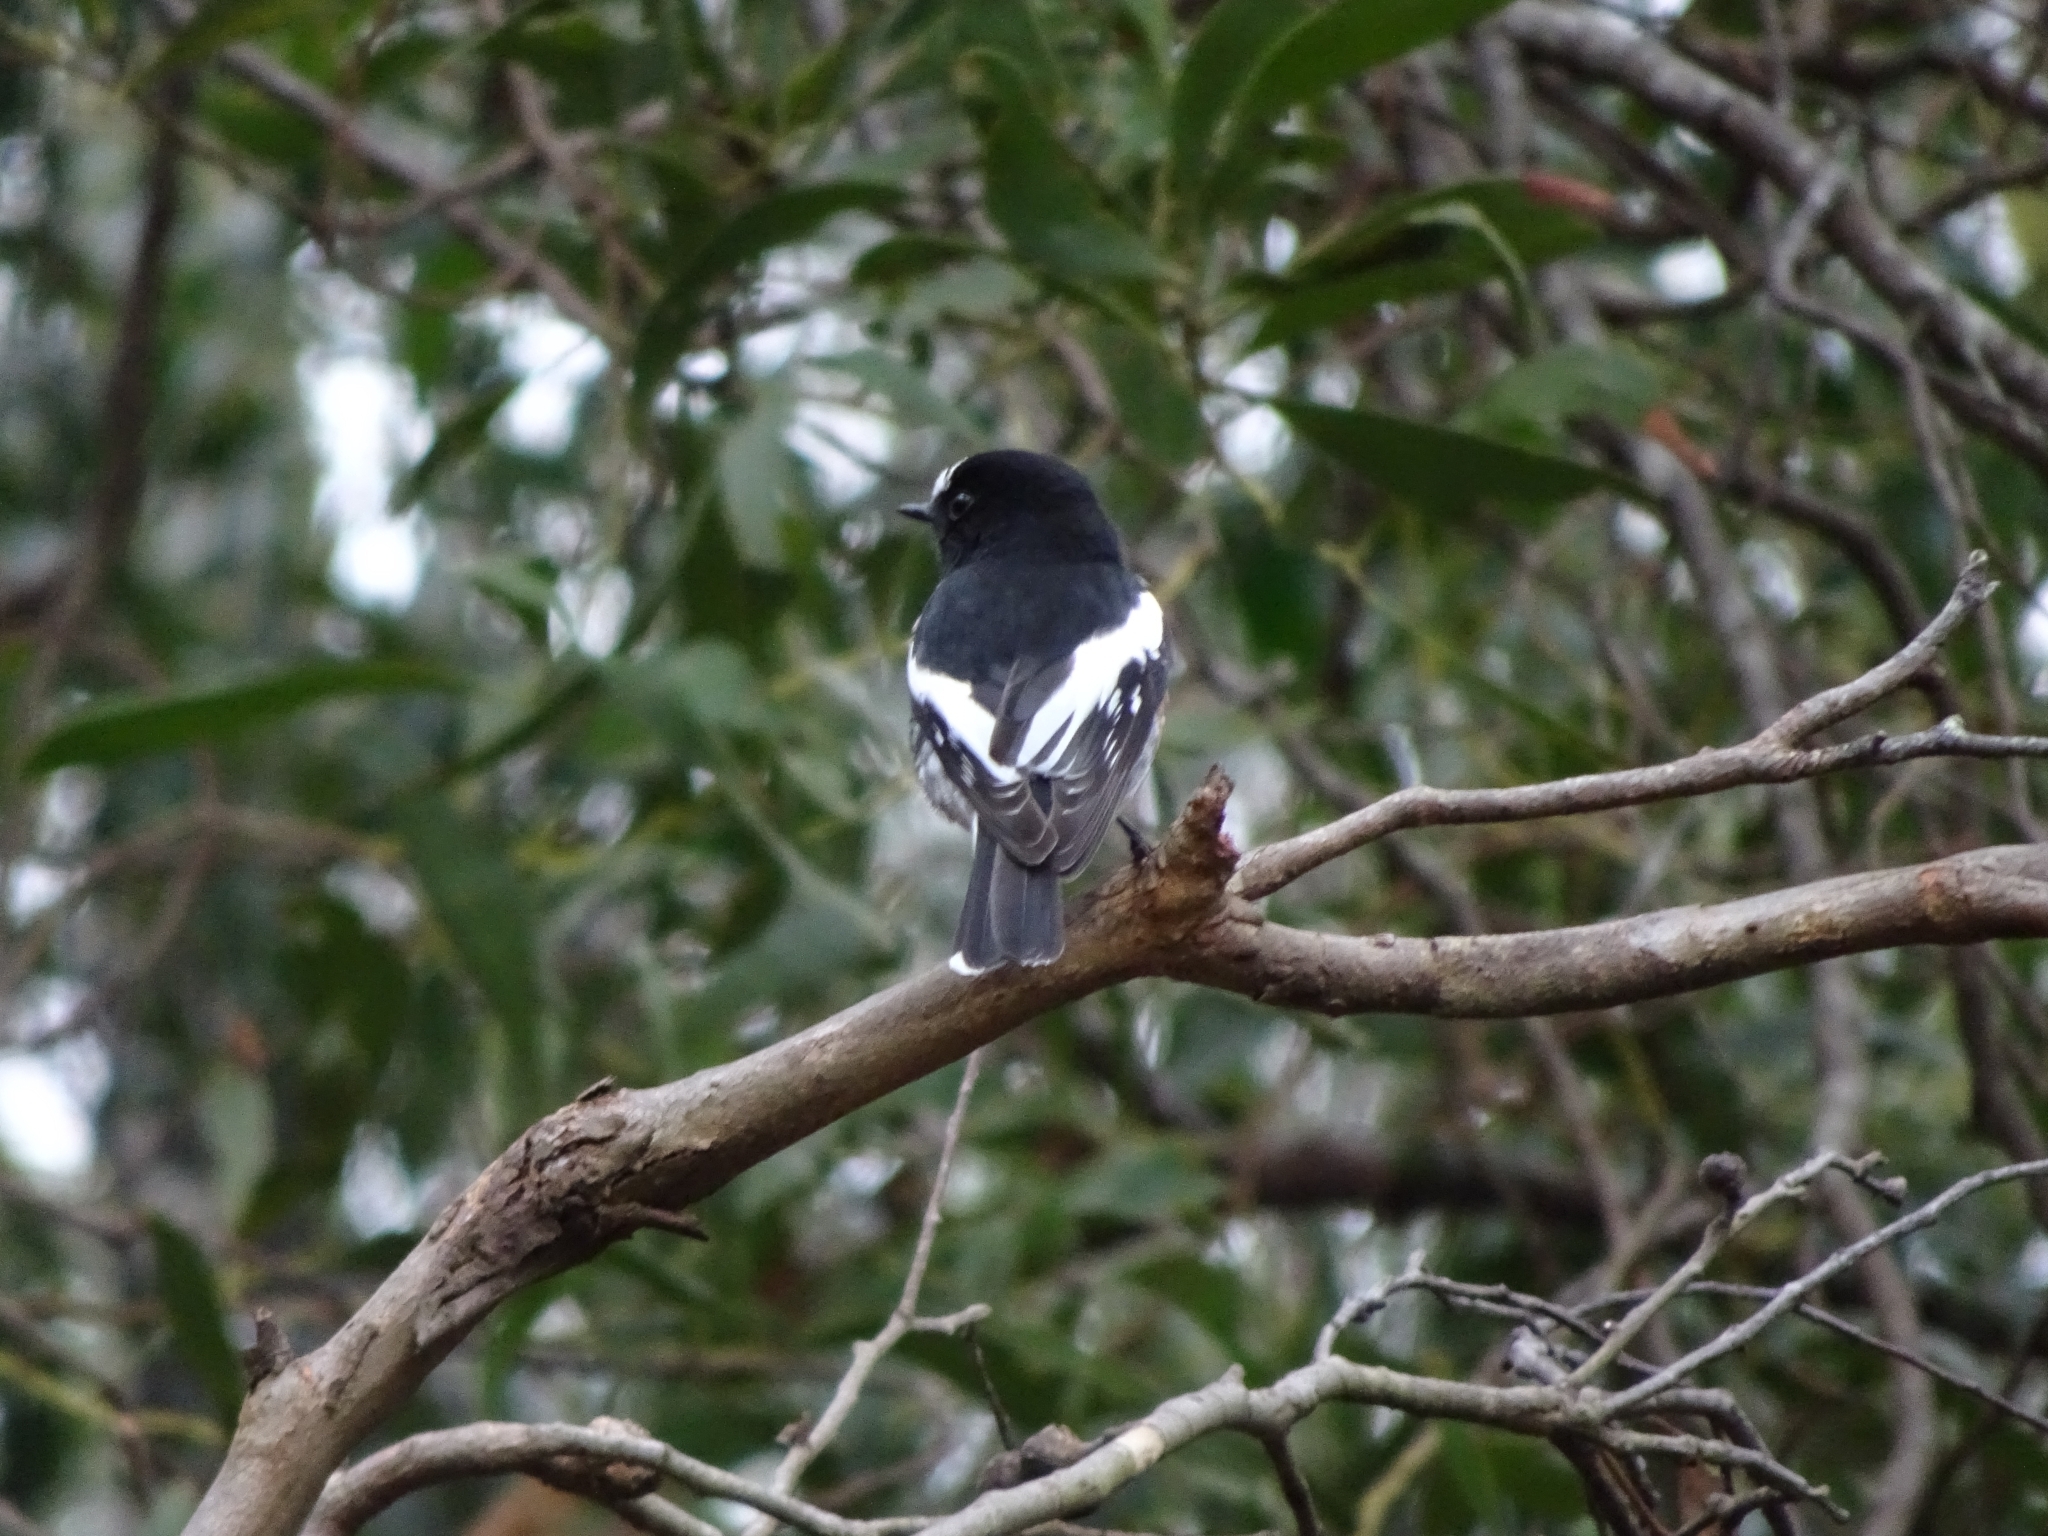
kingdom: Animalia
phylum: Chordata
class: Aves
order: Passeriformes
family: Petroicidae
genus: Petroica
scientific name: Petroica boodang
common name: Scarlet robin
